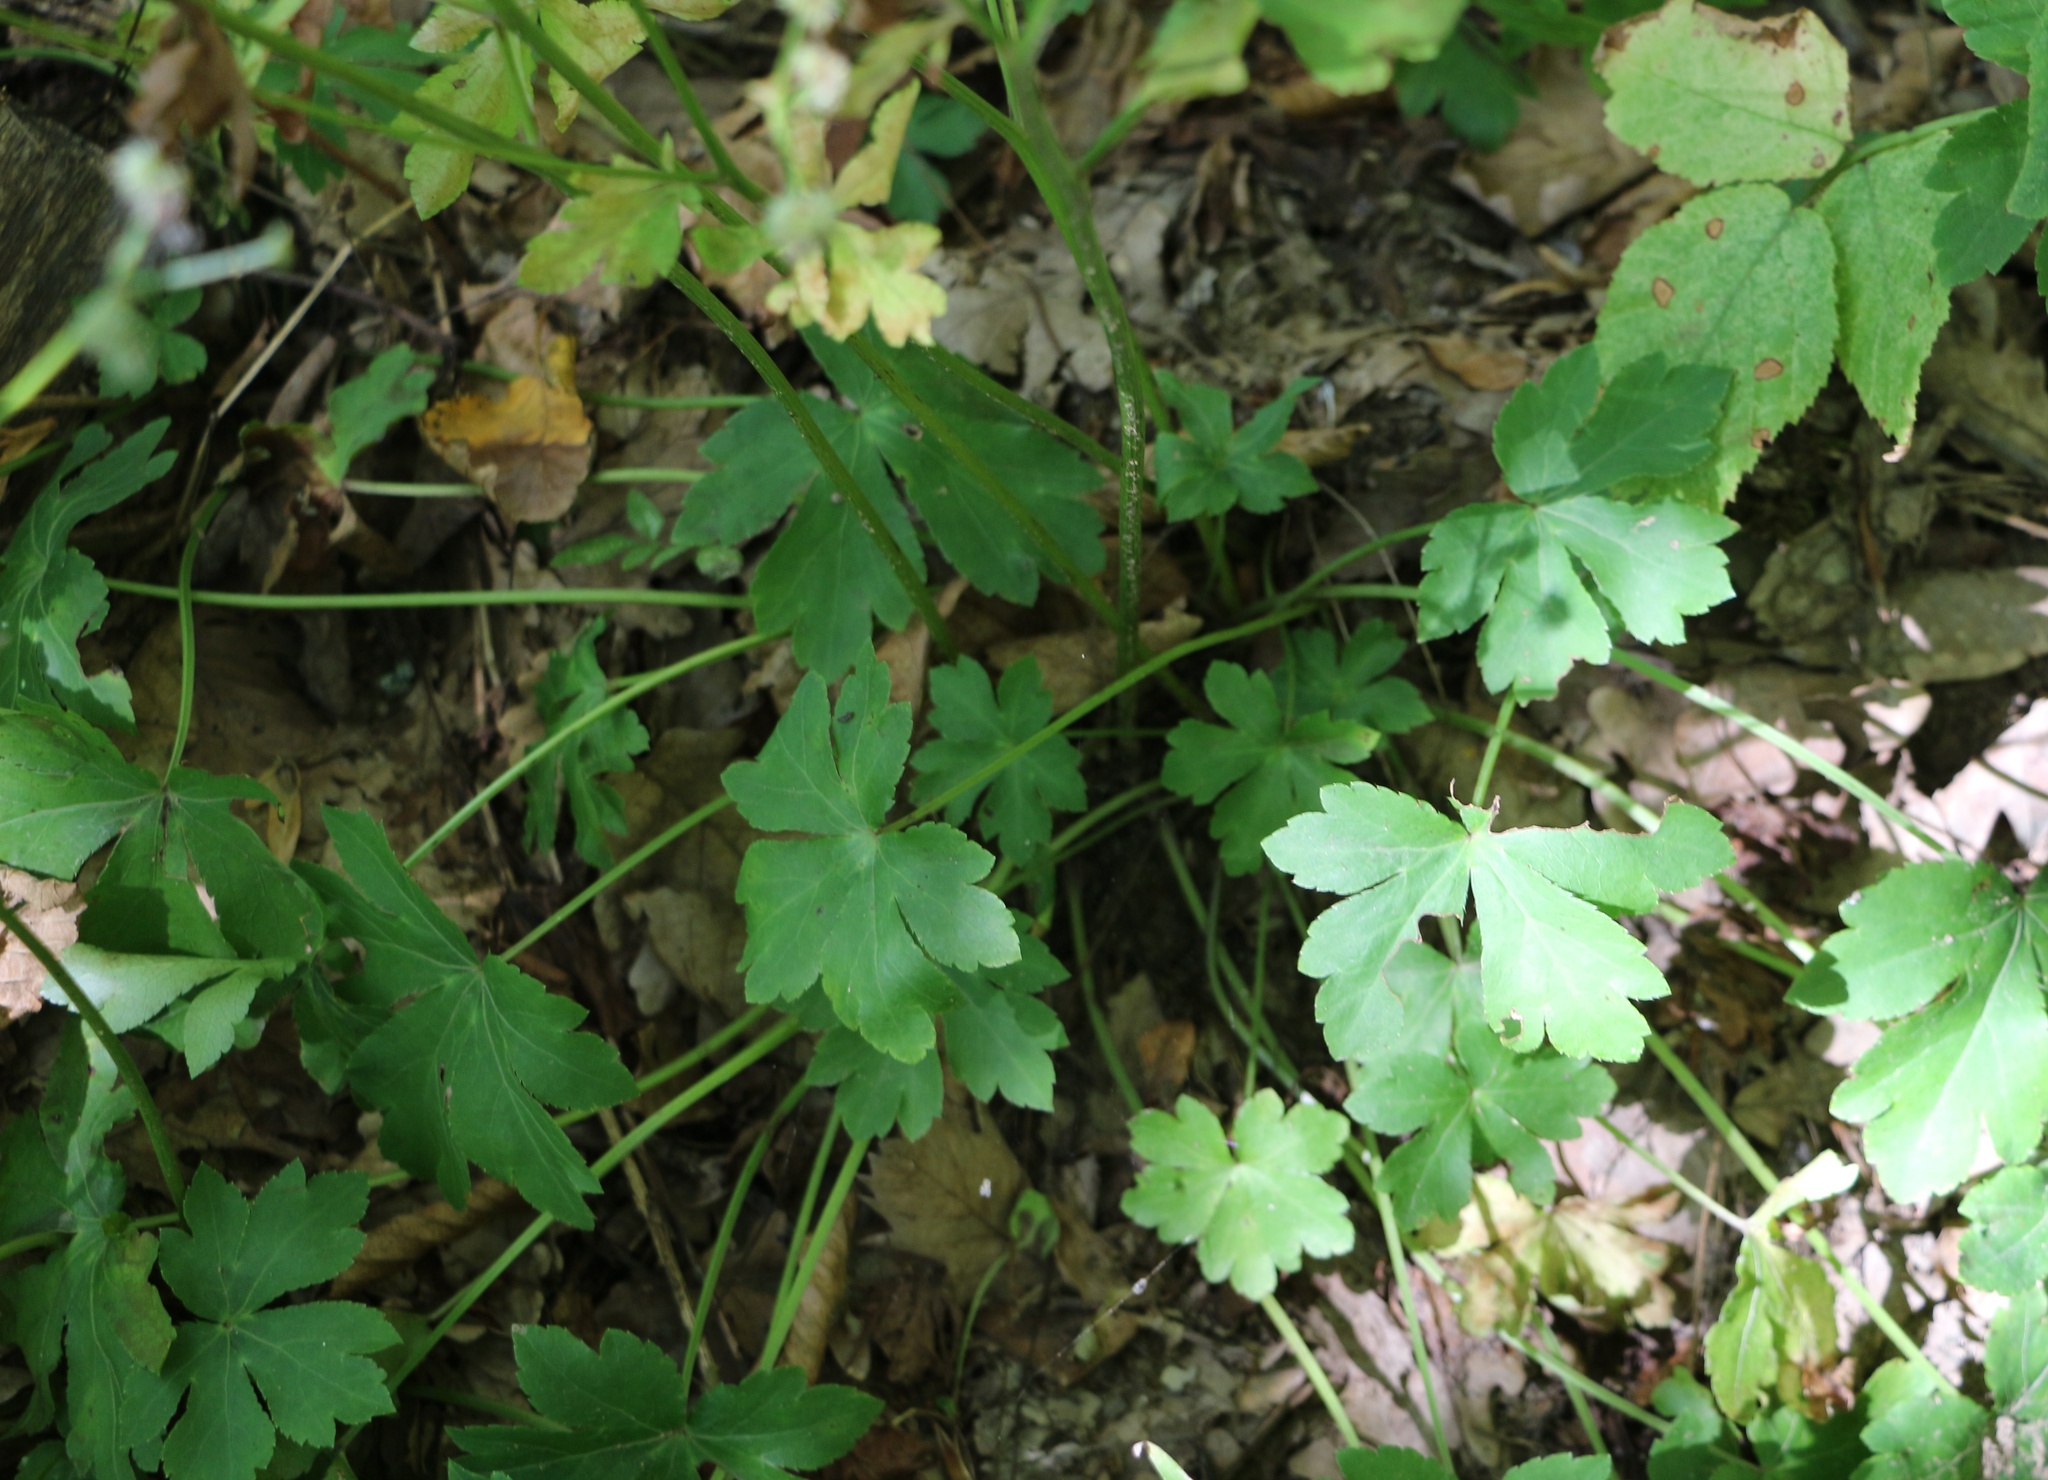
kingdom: Plantae
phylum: Tracheophyta
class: Magnoliopsida
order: Apiales
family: Apiaceae
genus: Sanicula
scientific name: Sanicula europaea
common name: Sanicle
